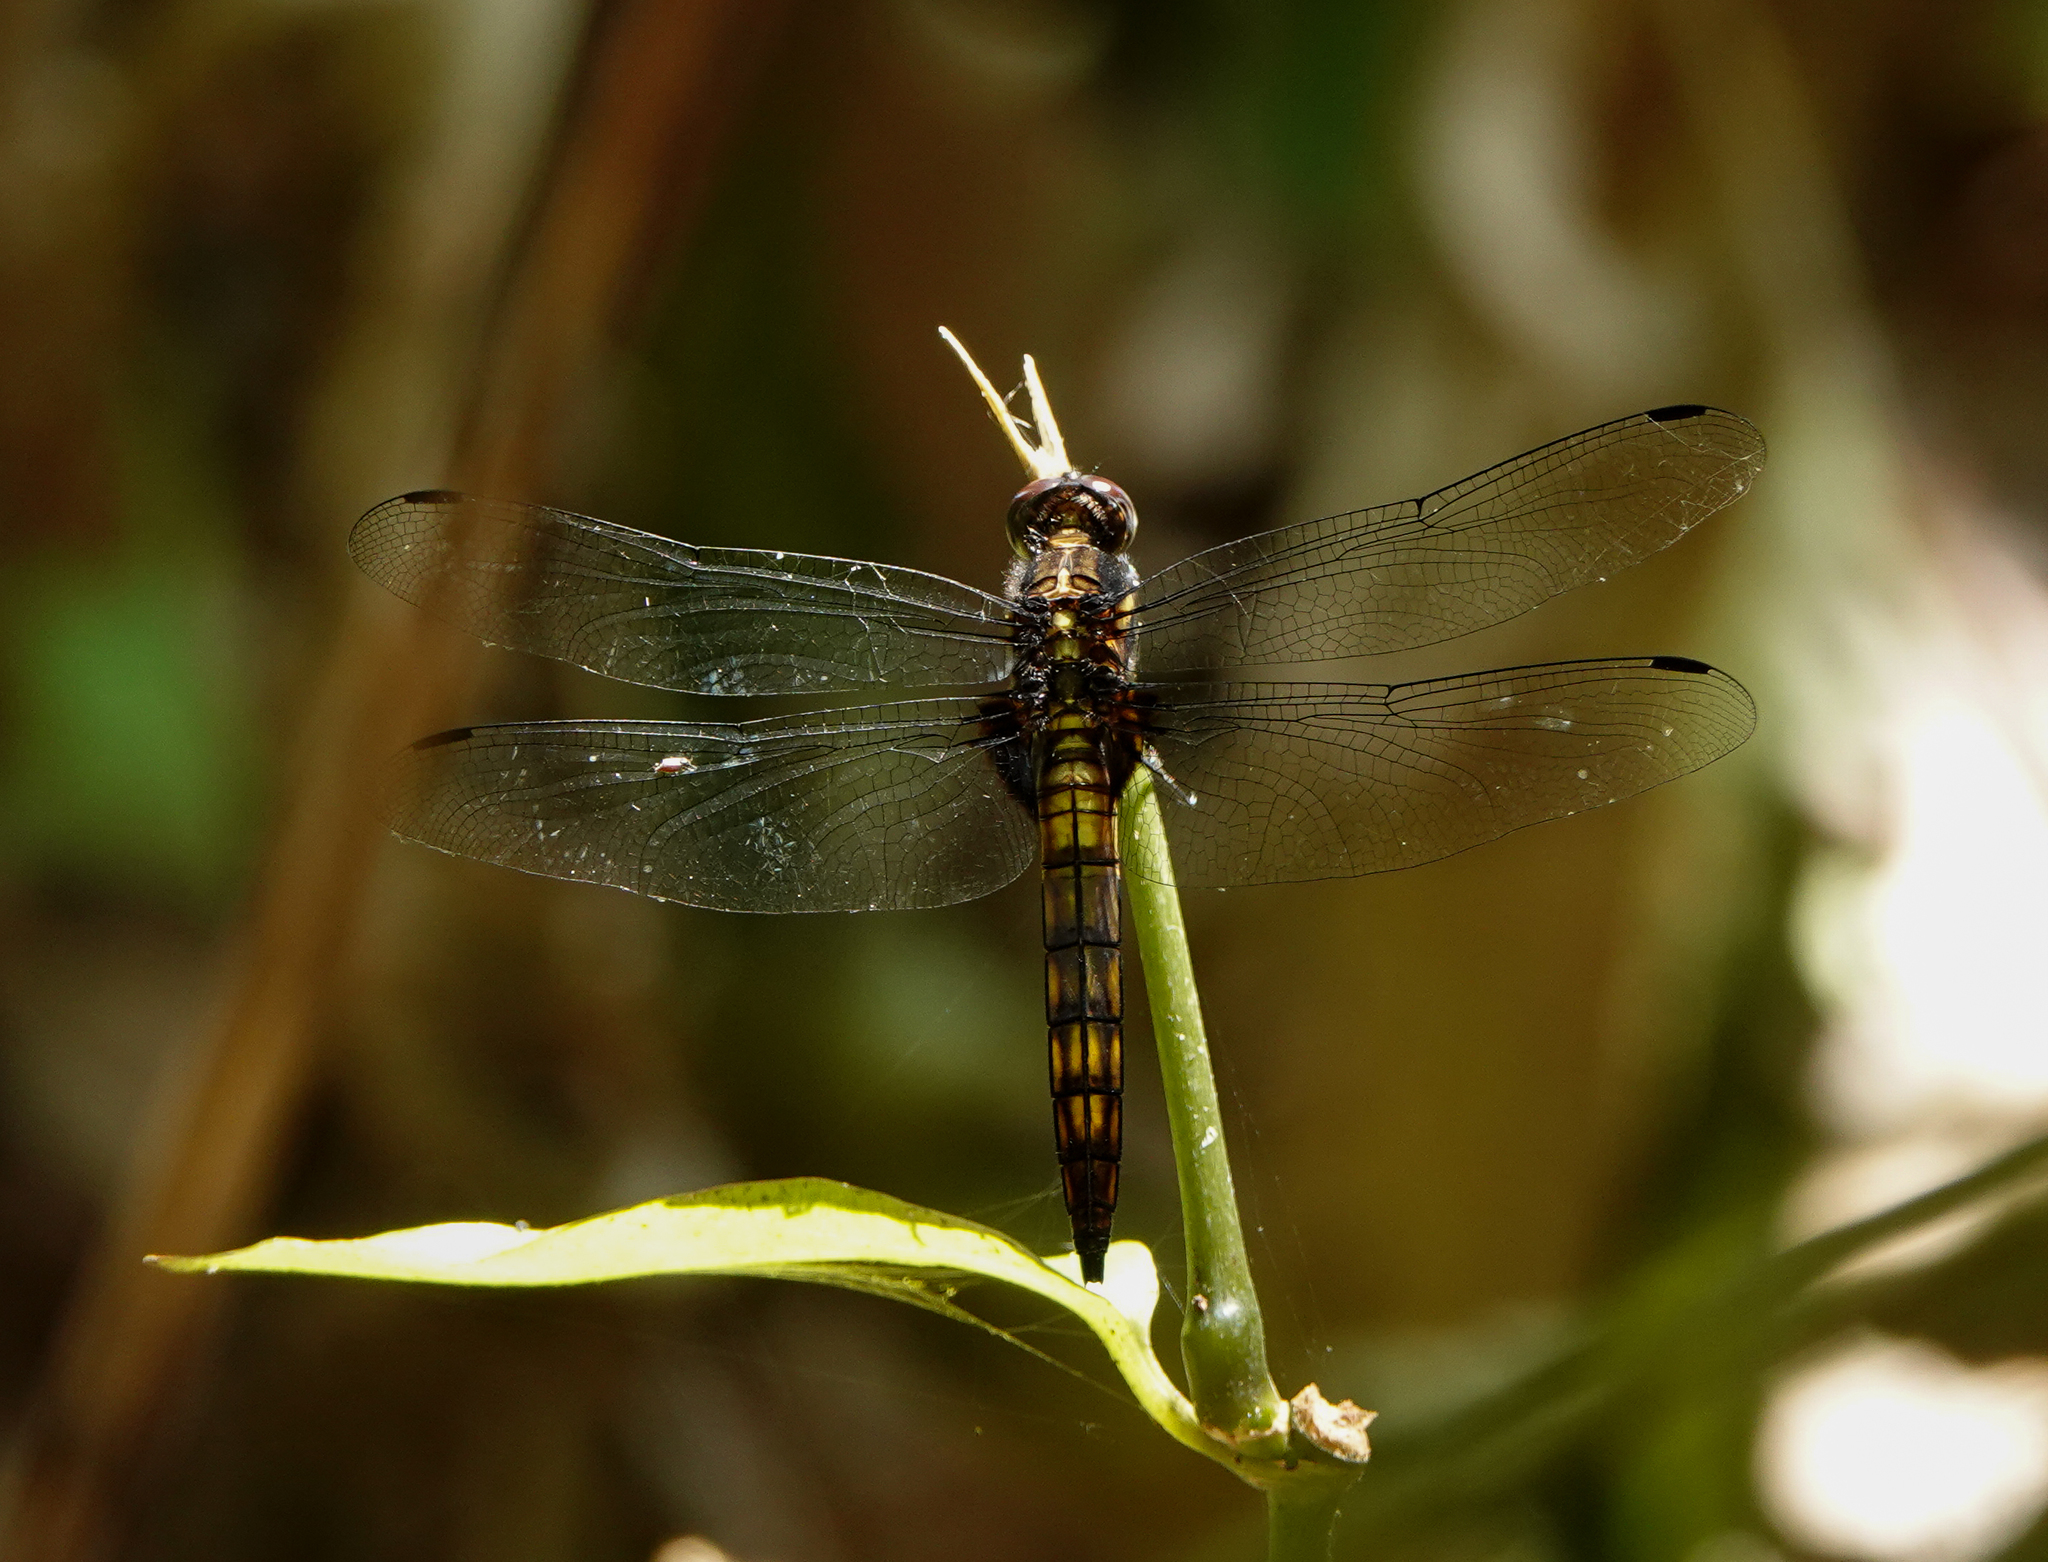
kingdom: Animalia
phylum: Arthropoda
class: Insecta
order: Odonata
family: Libellulidae
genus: Lyriothemis
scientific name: Lyriothemis bivittata
